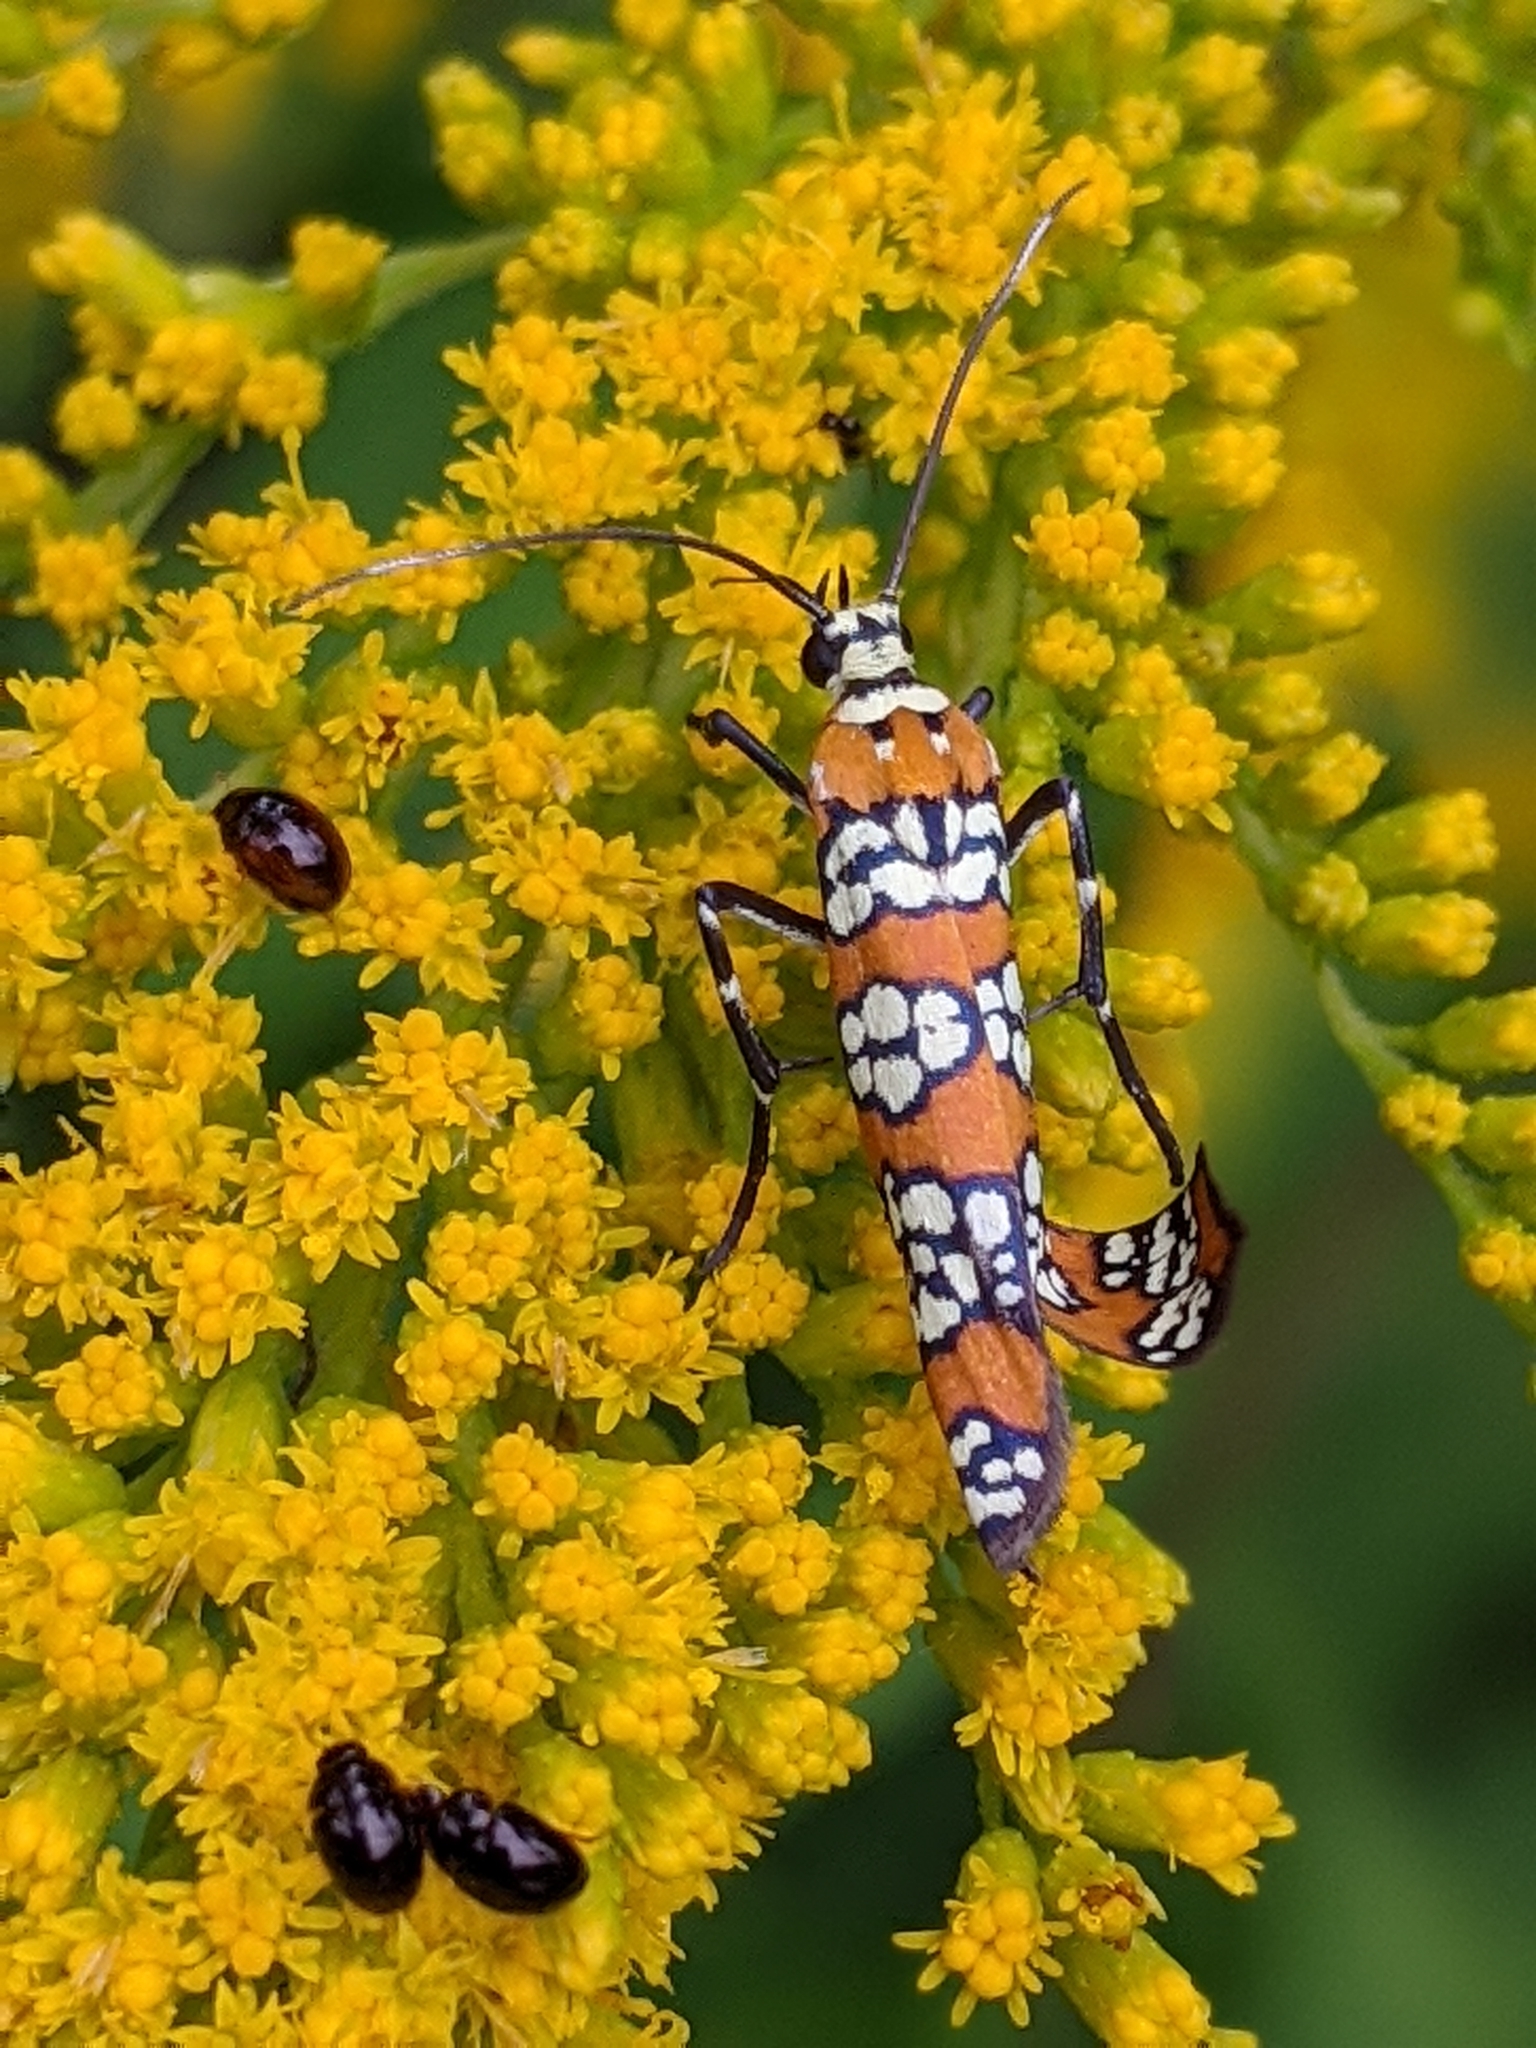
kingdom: Animalia
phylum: Arthropoda
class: Insecta
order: Lepidoptera
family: Attevidae
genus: Atteva
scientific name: Atteva punctella
